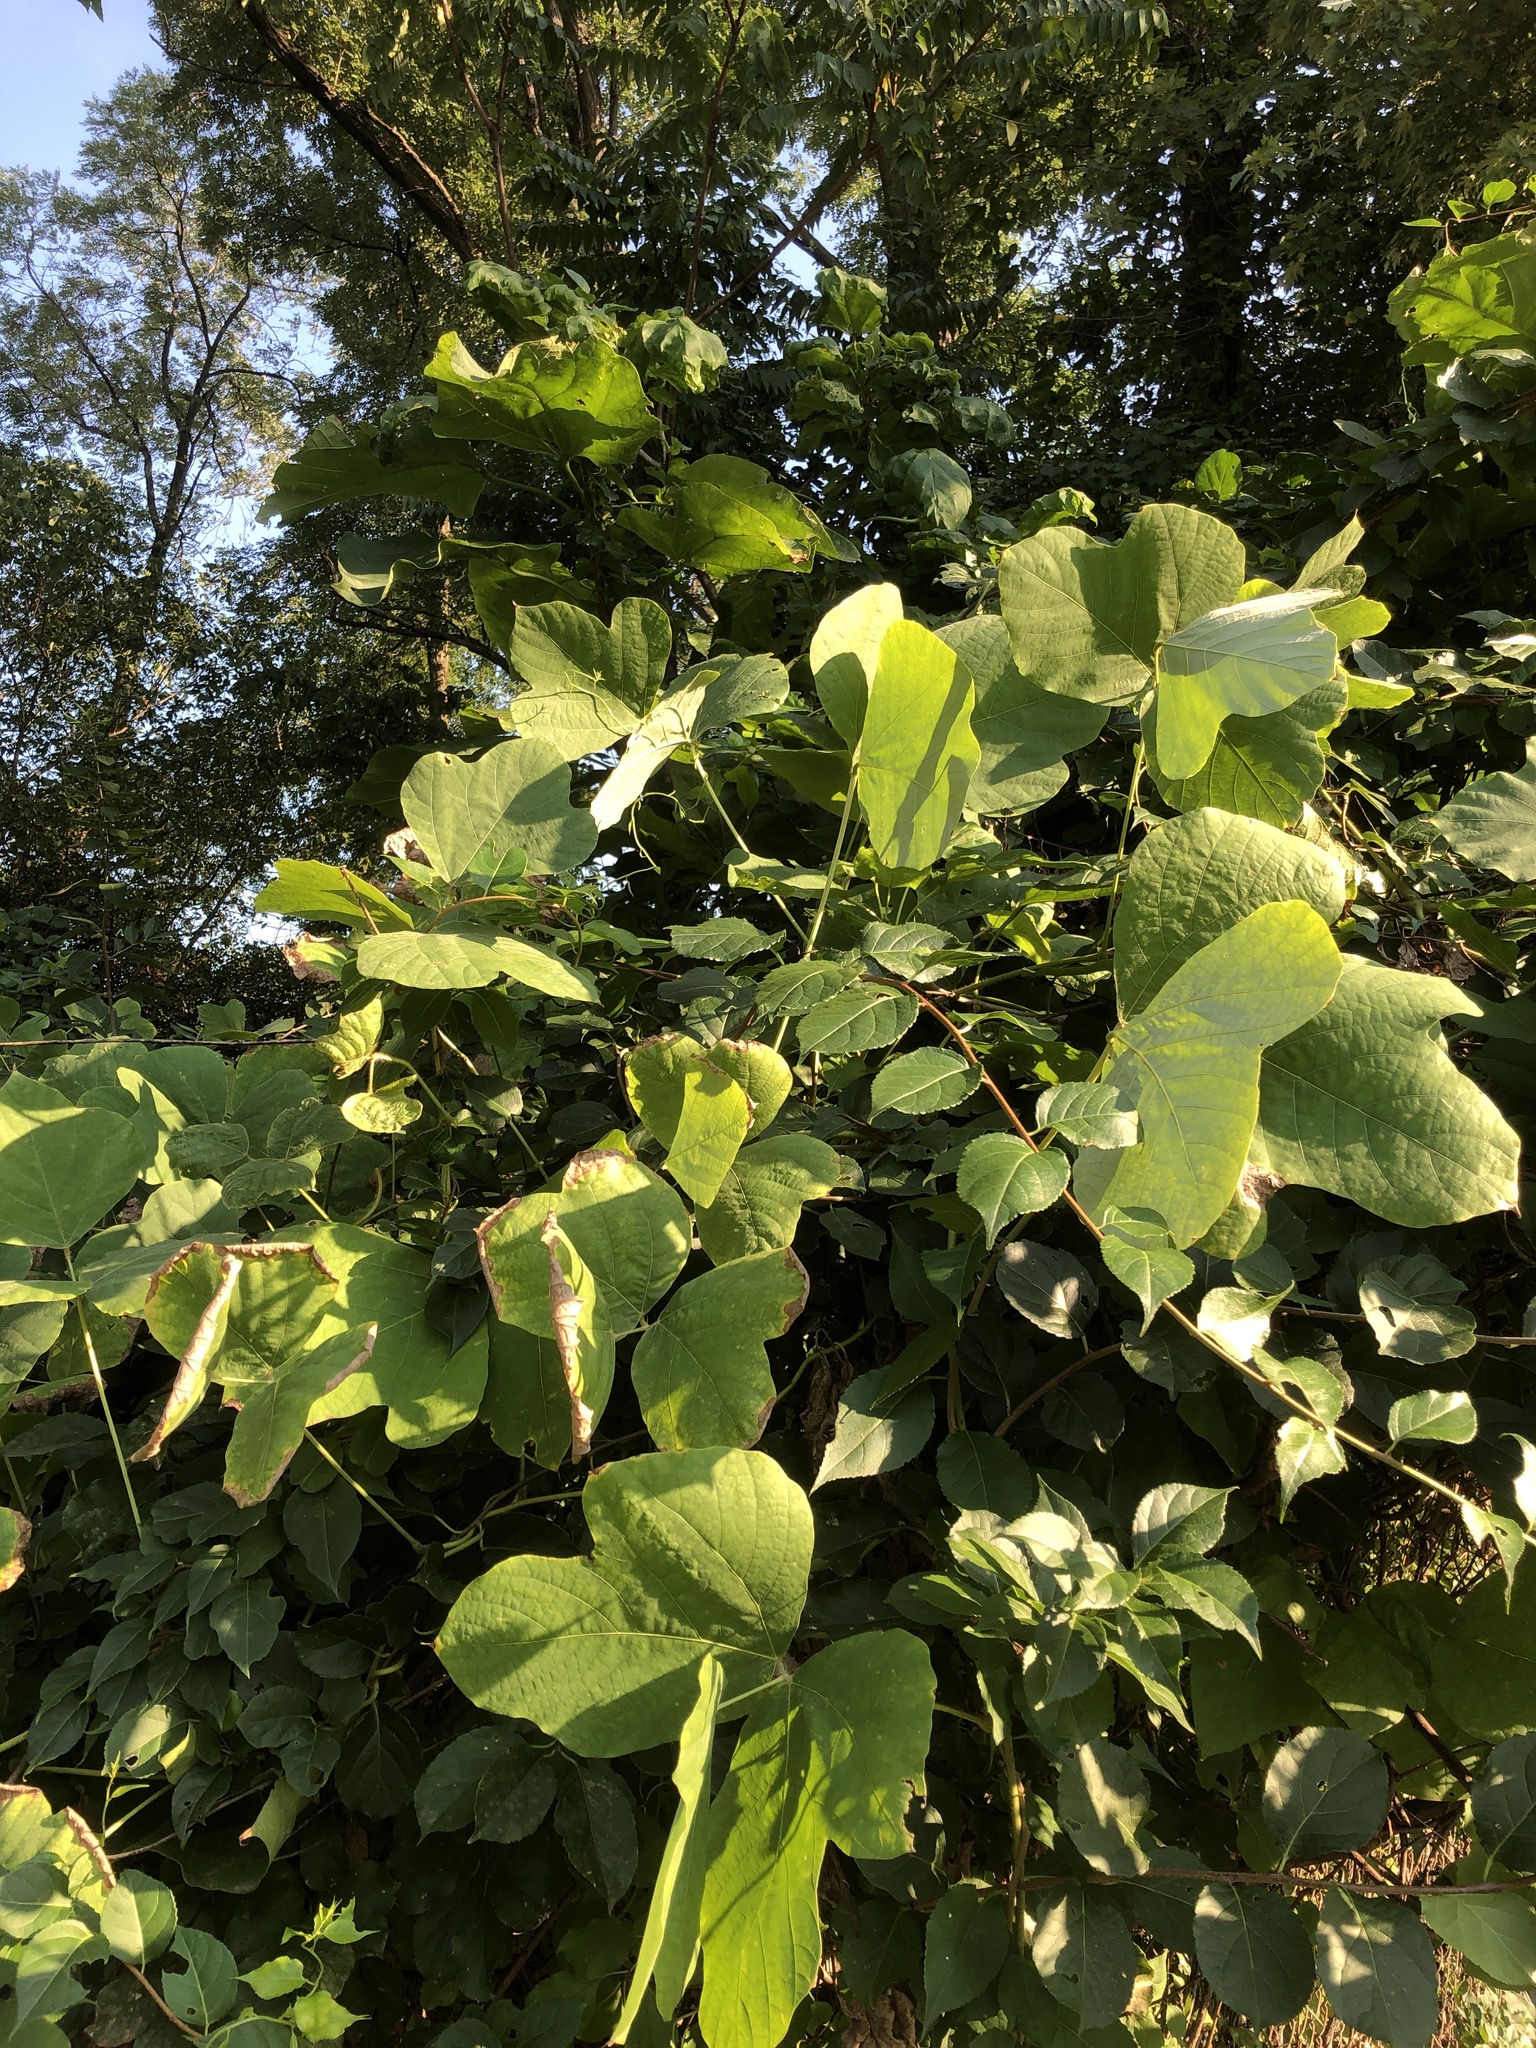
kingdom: Plantae
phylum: Tracheophyta
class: Magnoliopsida
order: Fabales
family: Fabaceae
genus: Pueraria
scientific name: Pueraria montana
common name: Kudzu
